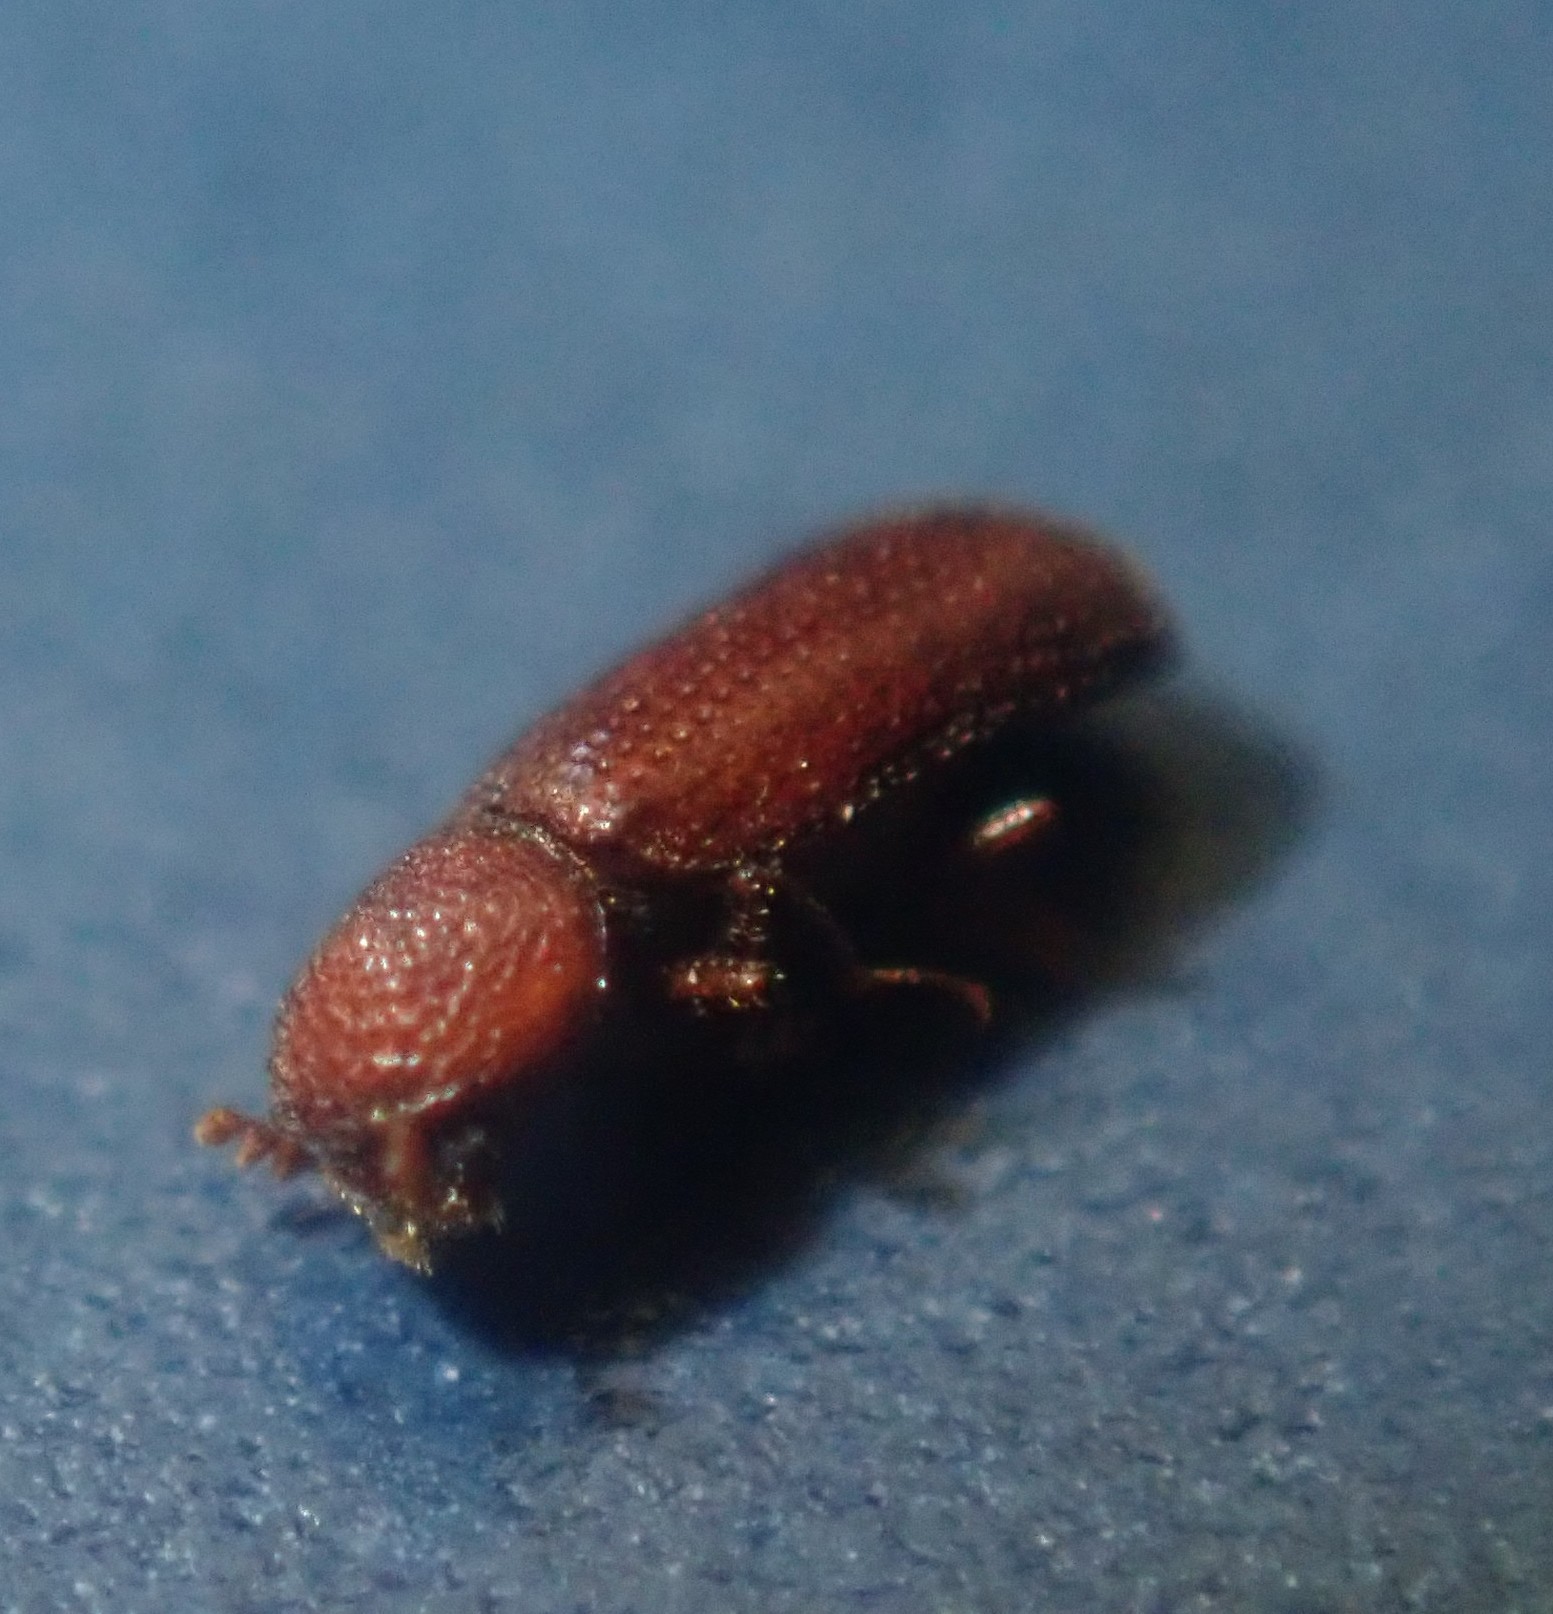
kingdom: Animalia
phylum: Arthropoda
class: Insecta
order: Coleoptera
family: Bostrichidae
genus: Rhyzopertha
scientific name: Rhyzopertha dominica
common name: Lesser grain borer
